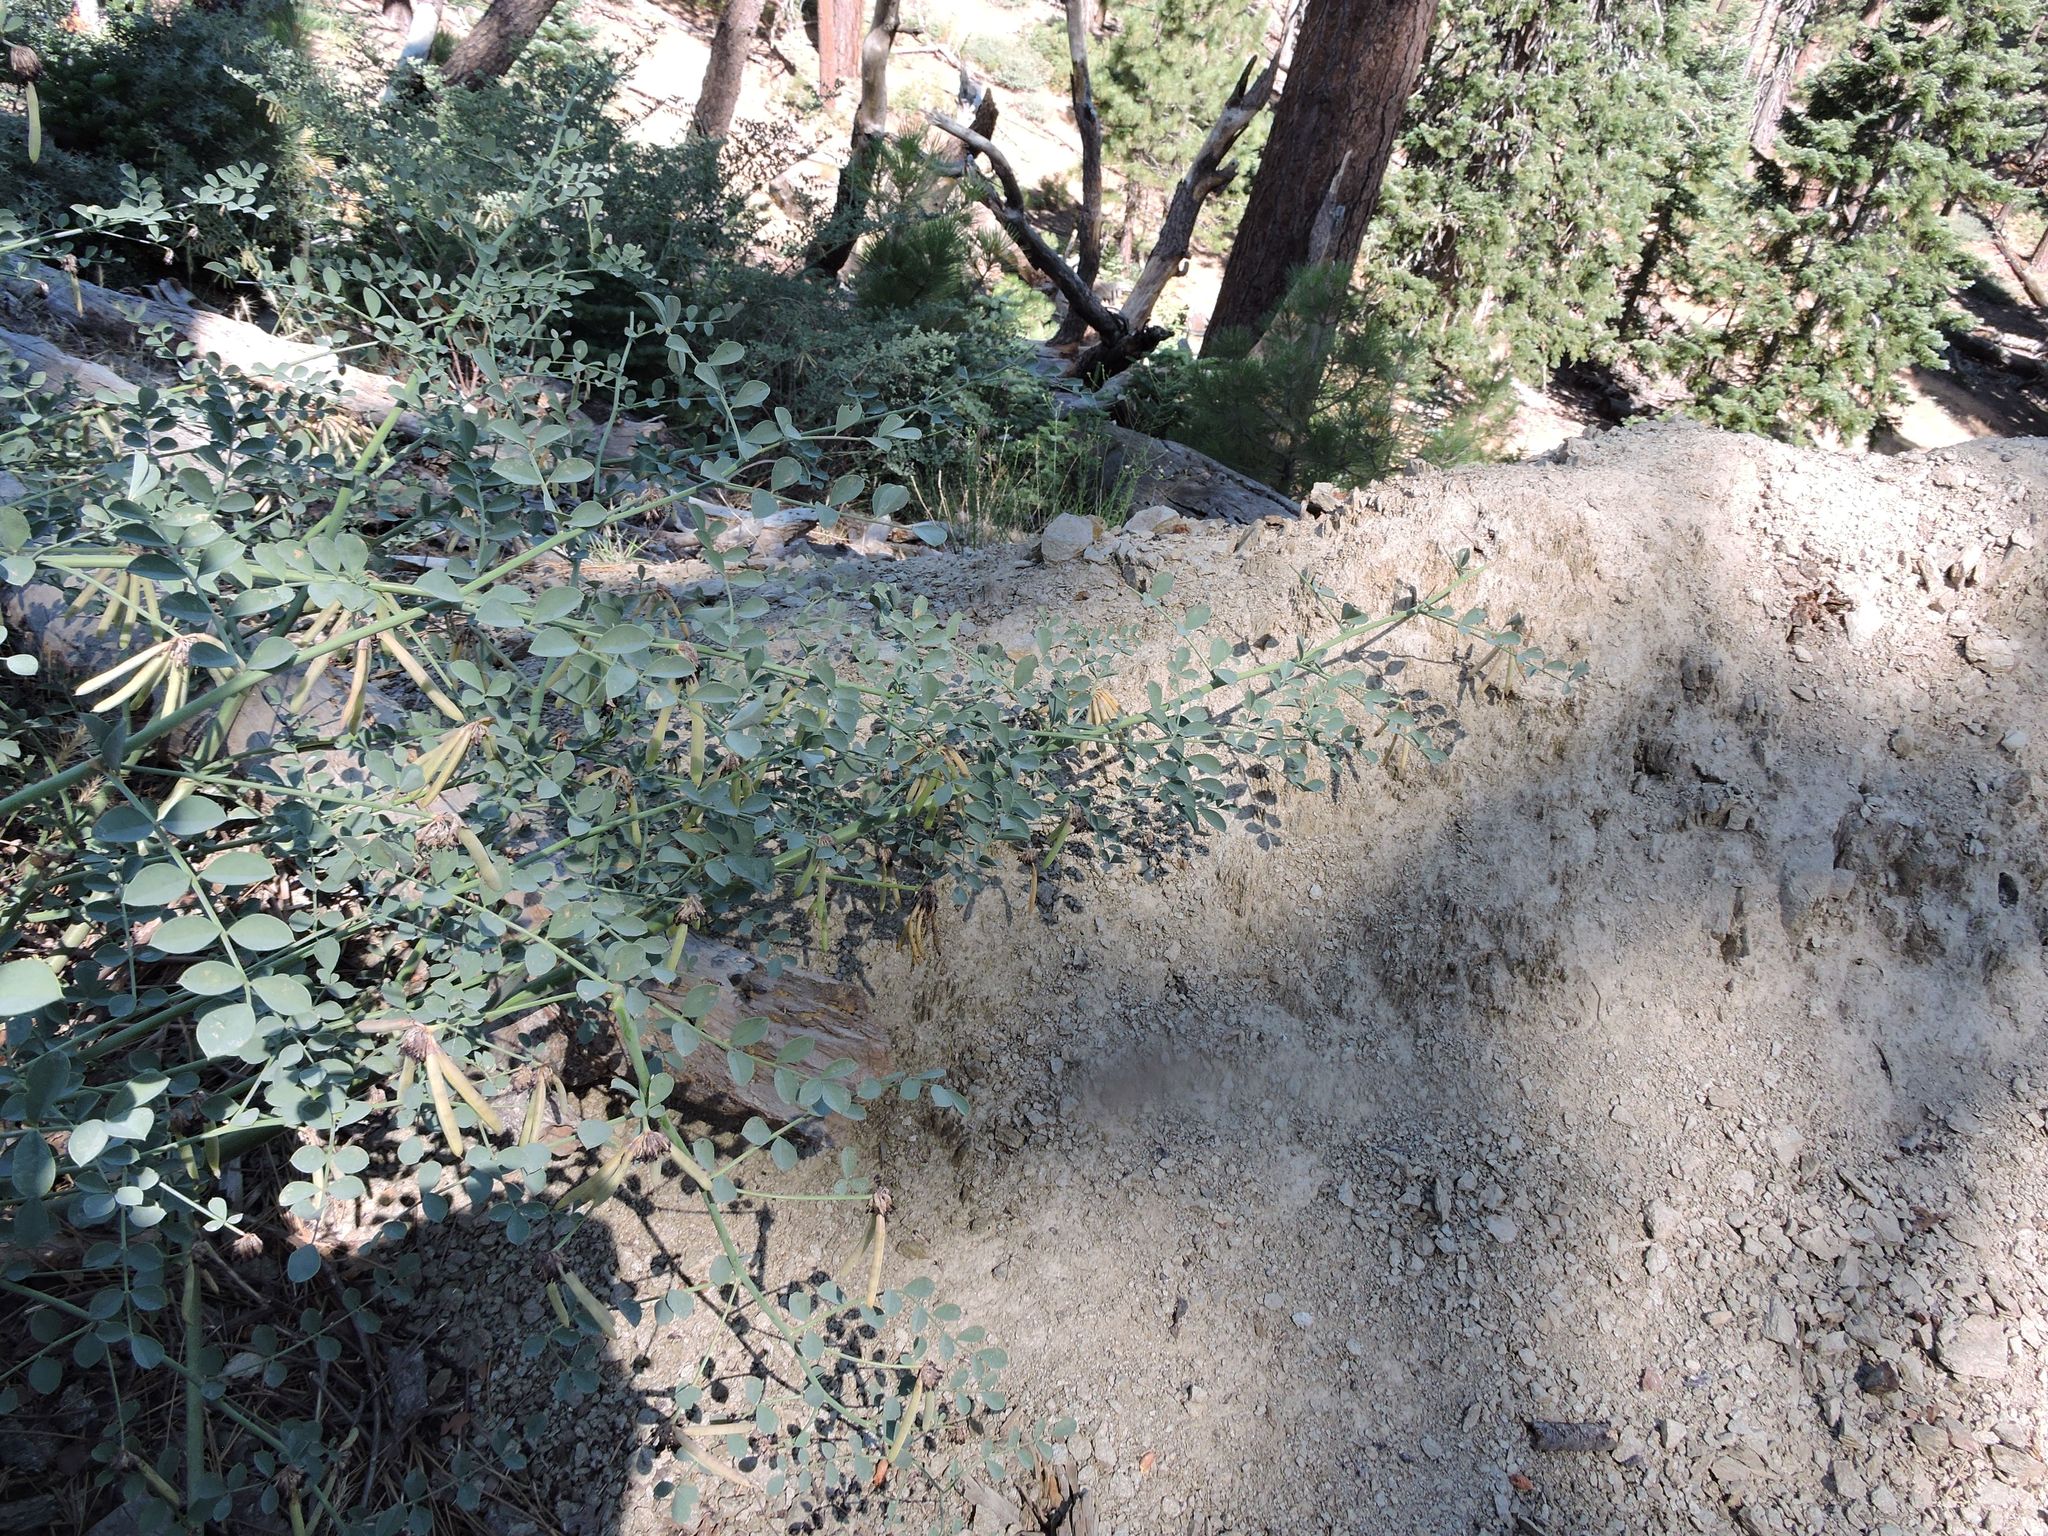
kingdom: Plantae
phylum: Tracheophyta
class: Magnoliopsida
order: Fabales
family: Fabaceae
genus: Hosackia
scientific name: Hosackia crassifolia
